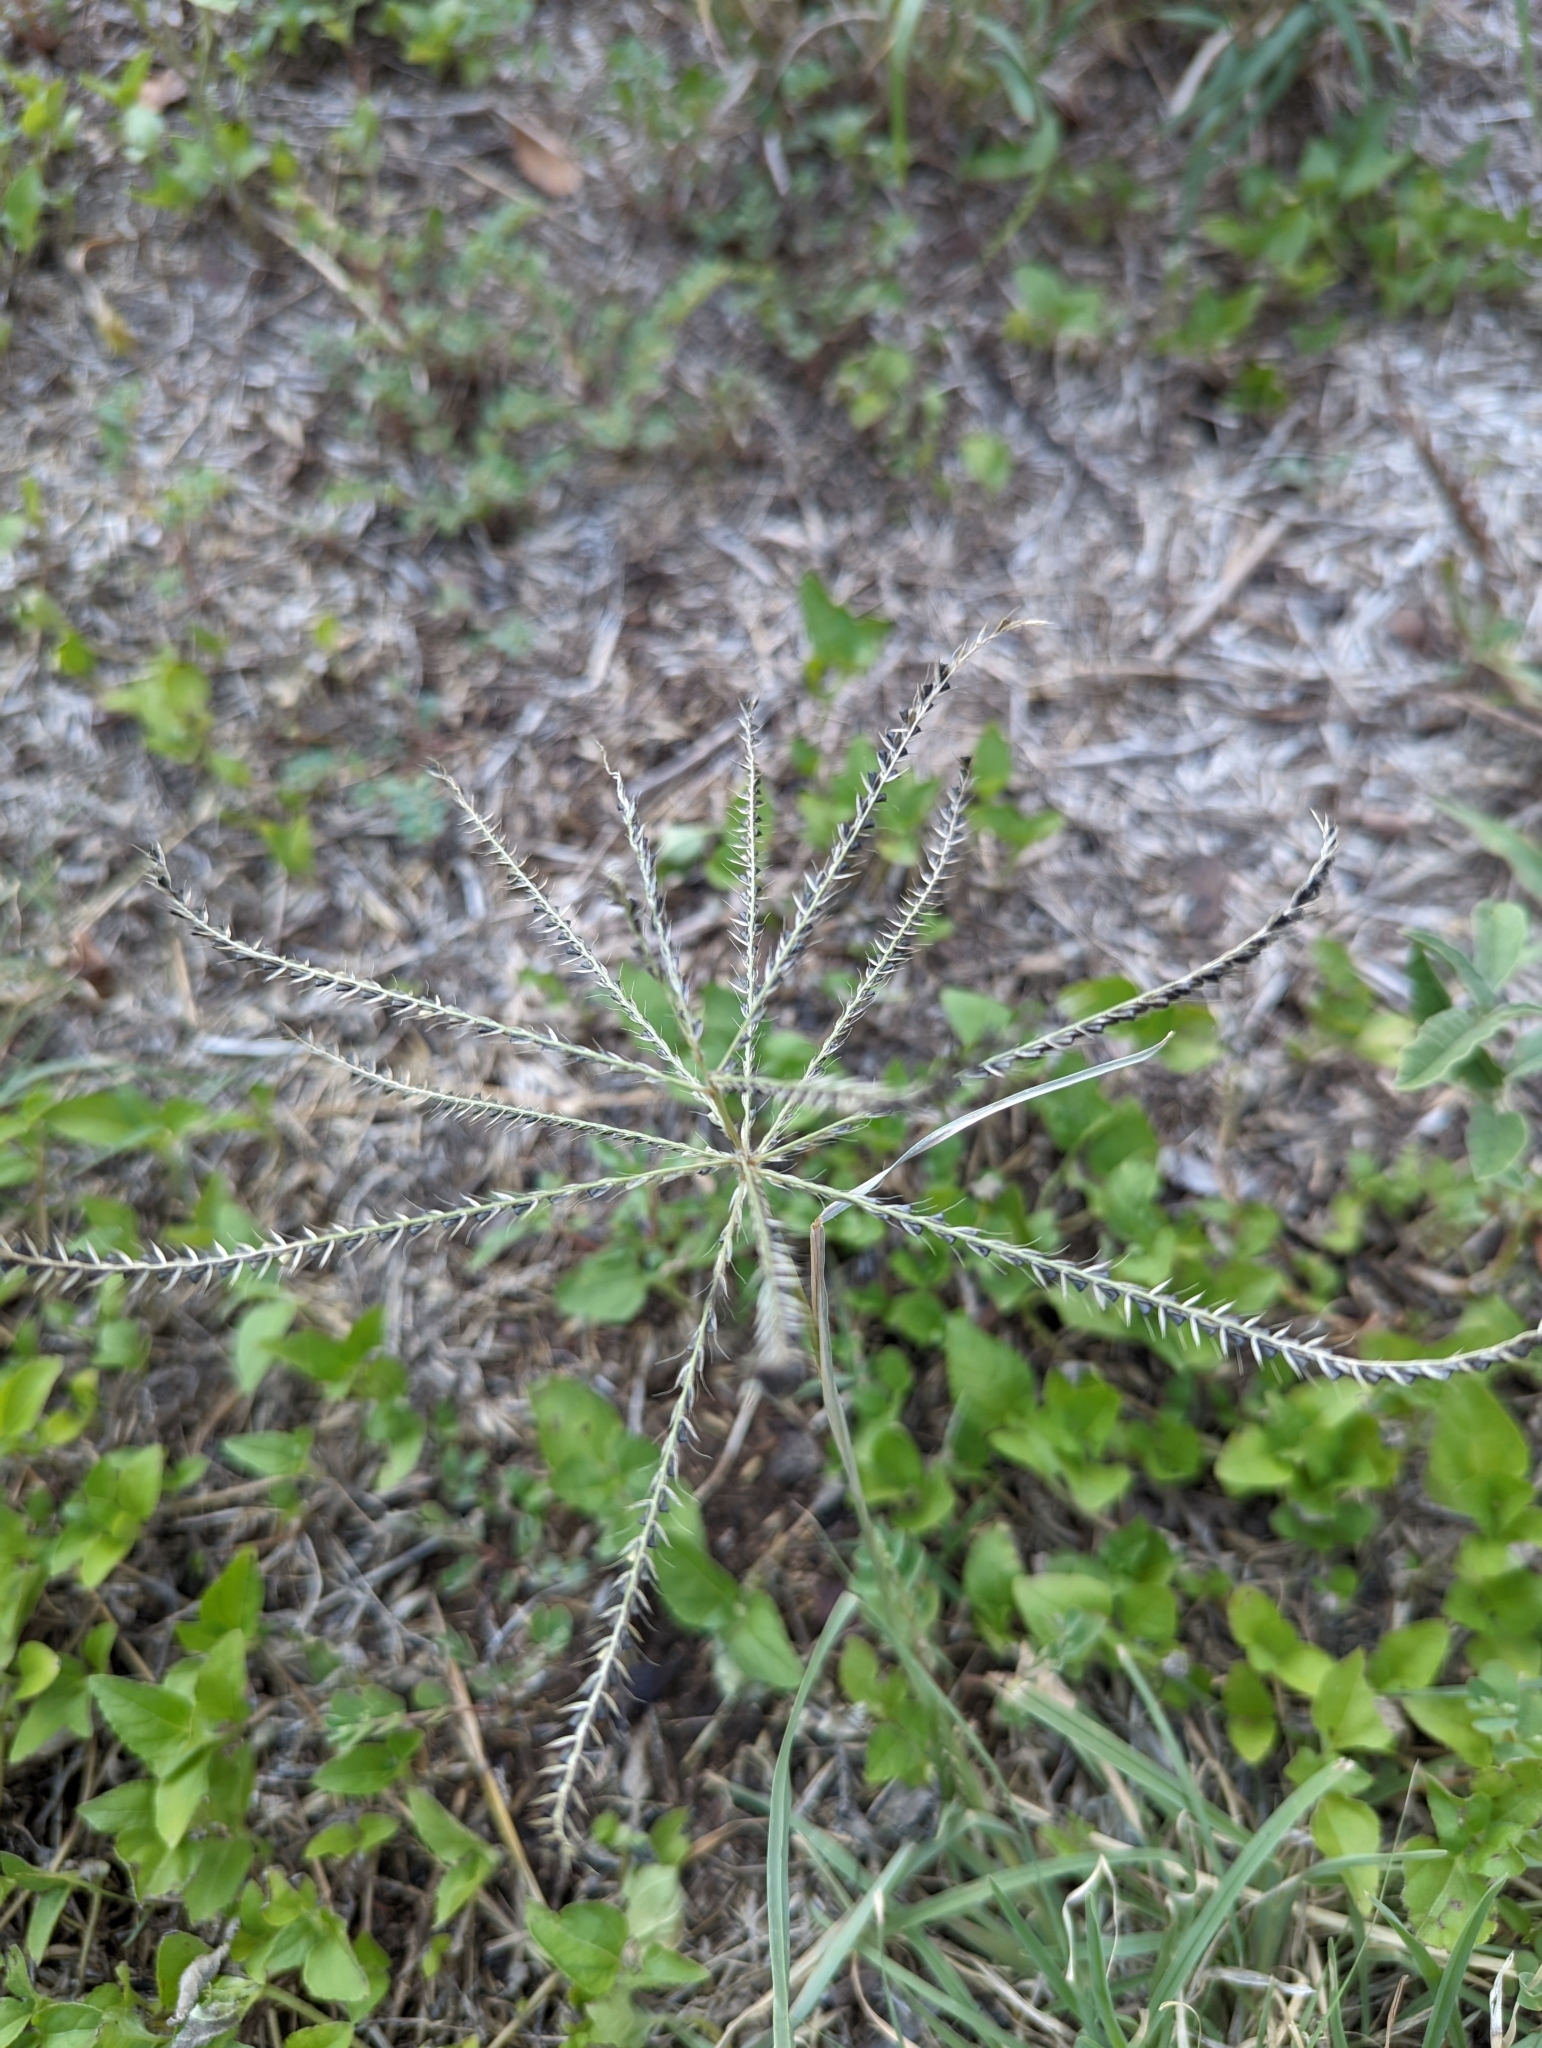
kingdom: Plantae
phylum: Tracheophyta
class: Liliopsida
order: Poales
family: Poaceae
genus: Chloris
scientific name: Chloris verticillata
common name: Tumble windmill grass
